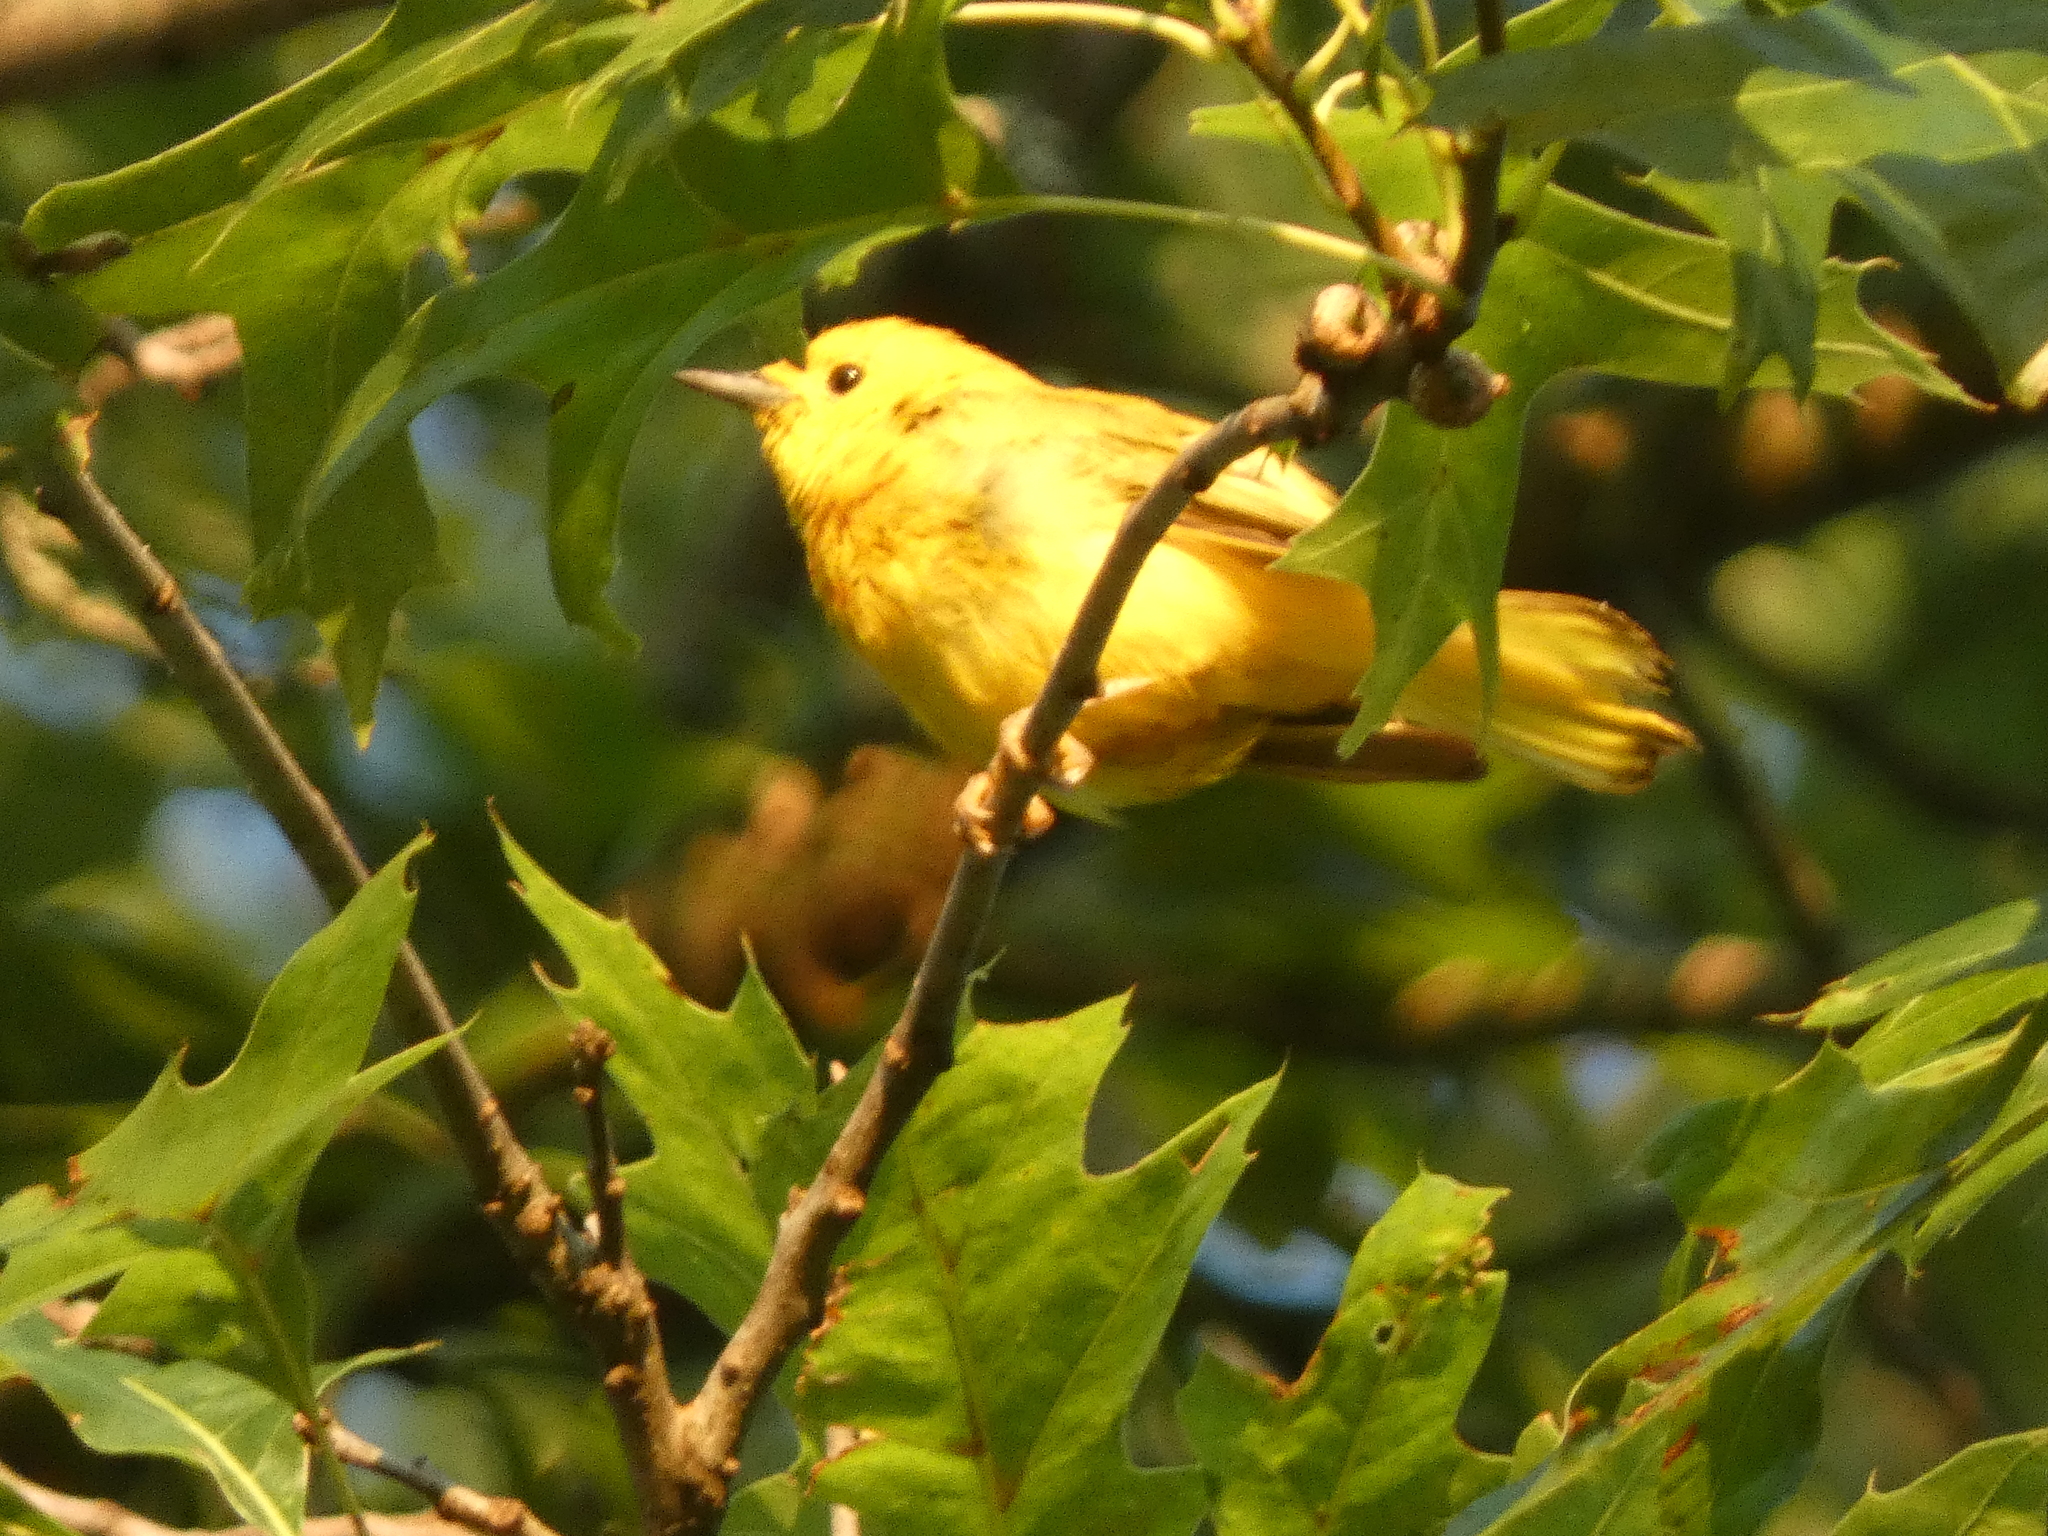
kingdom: Animalia
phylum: Chordata
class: Aves
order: Passeriformes
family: Parulidae
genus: Setophaga
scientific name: Setophaga petechia
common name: Yellow warbler
